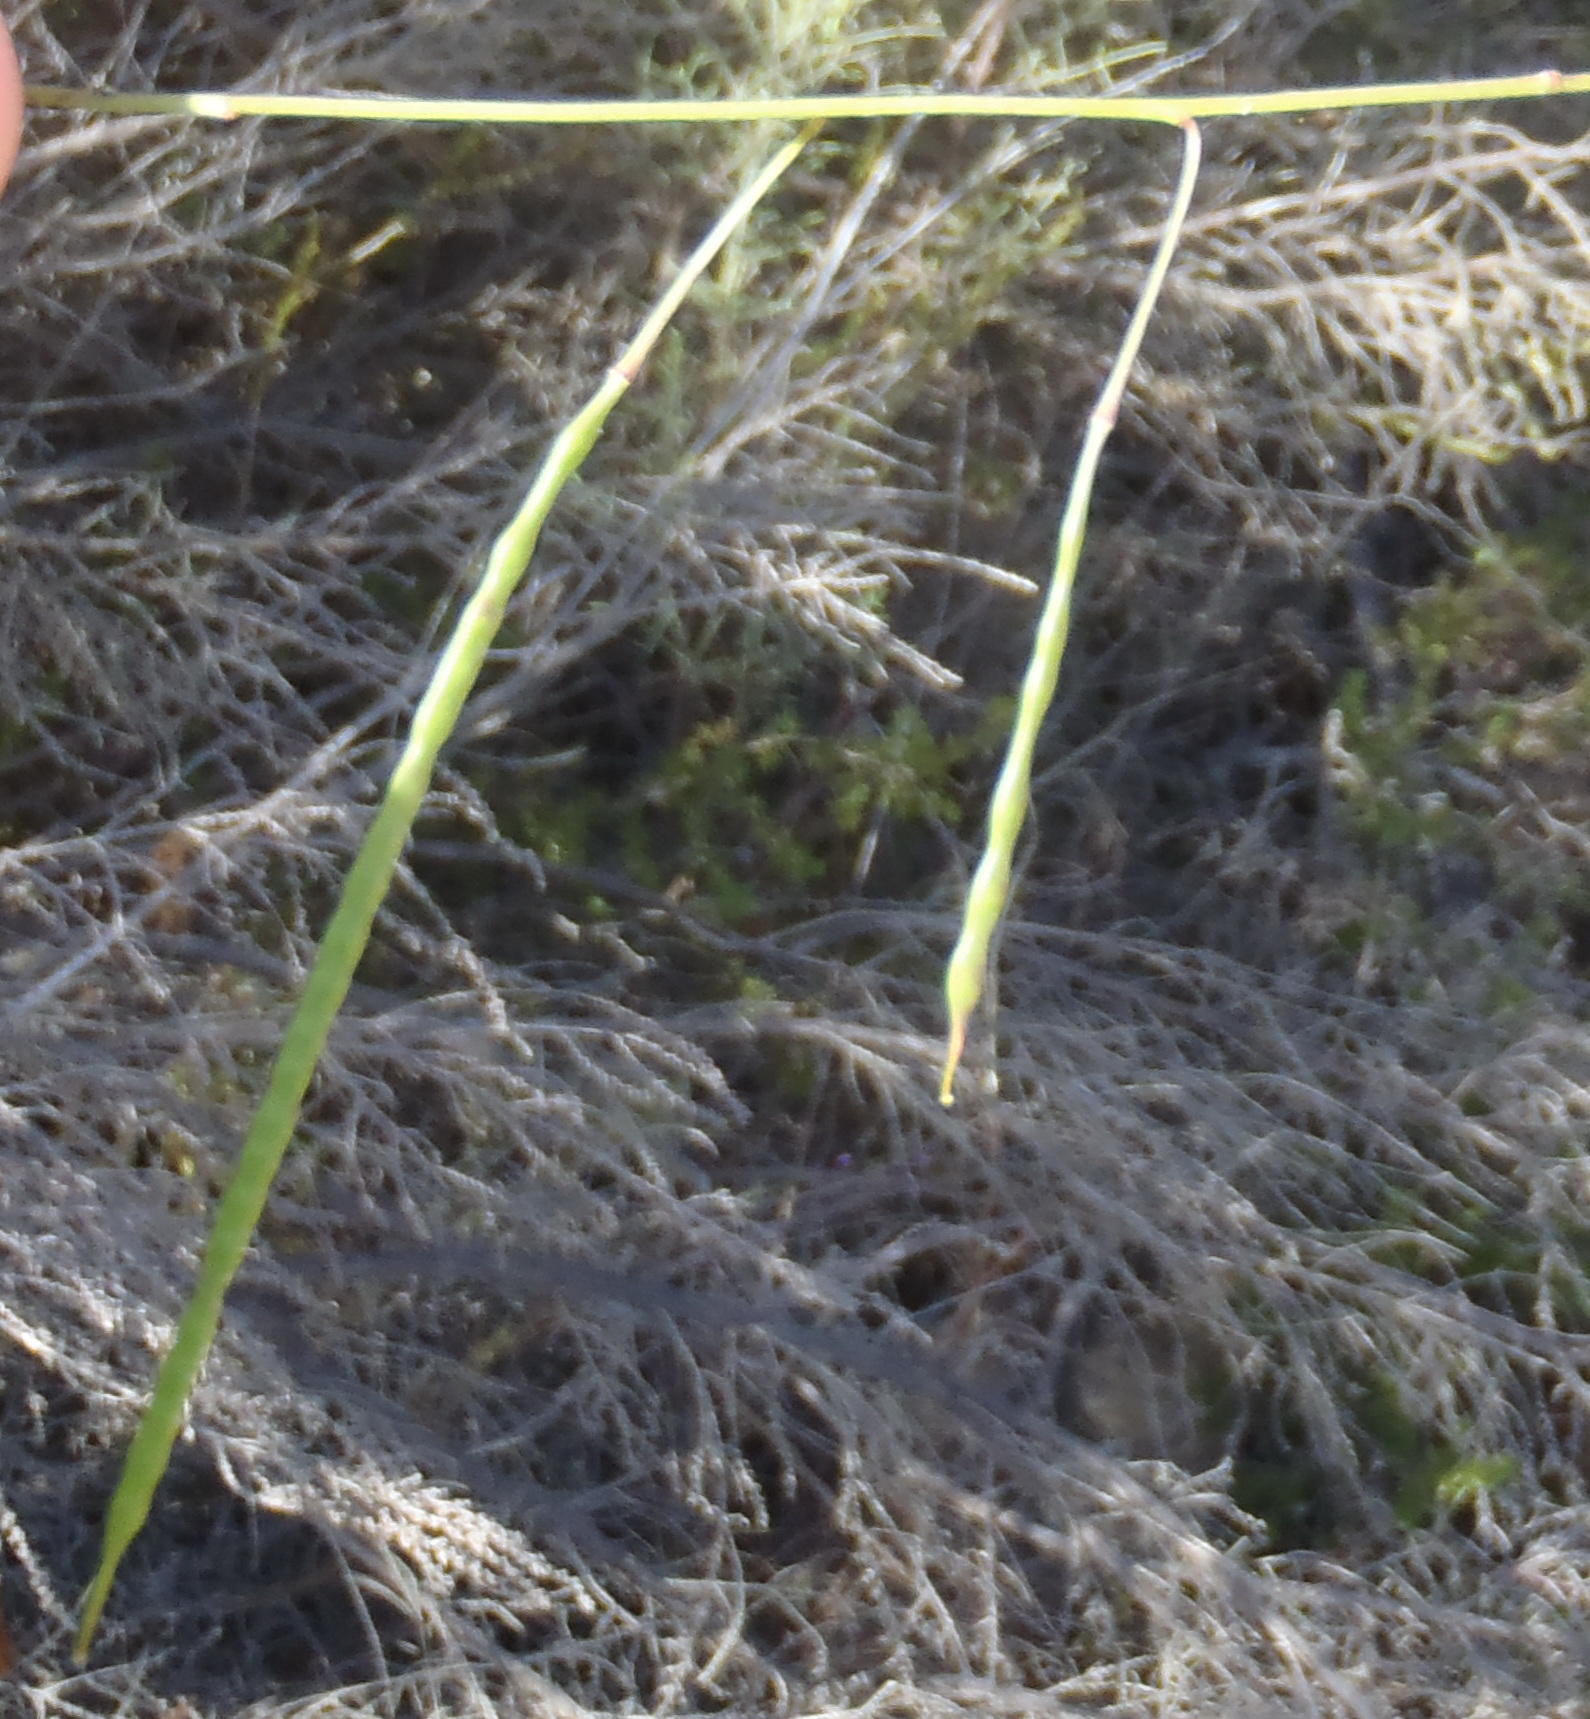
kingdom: Plantae
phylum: Tracheophyta
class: Magnoliopsida
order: Brassicales
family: Brassicaceae
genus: Heliophila
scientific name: Heliophila subulata
